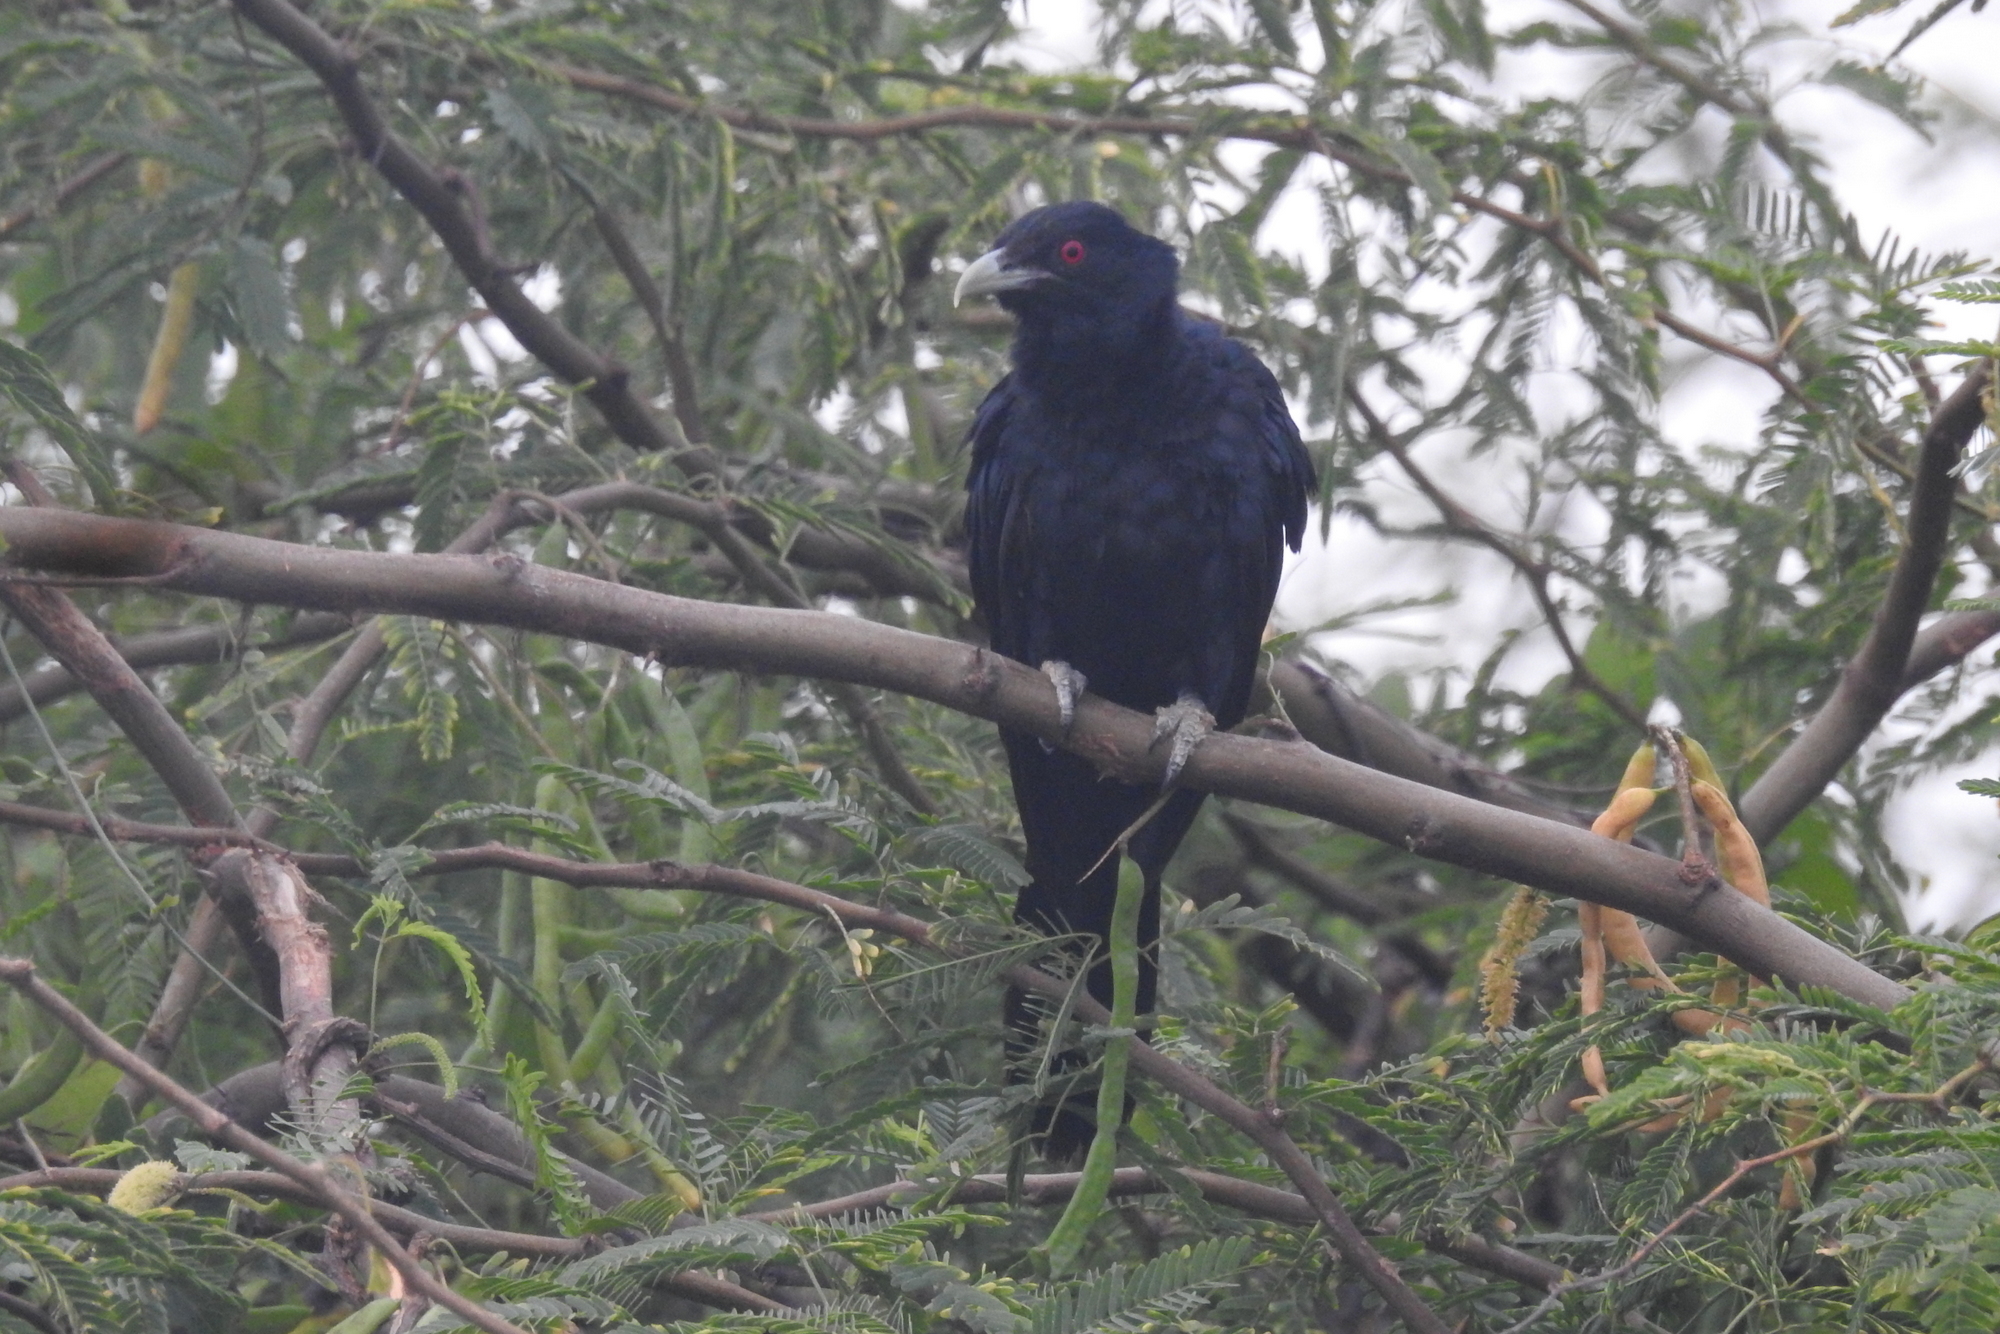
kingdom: Animalia
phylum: Chordata
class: Aves
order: Cuculiformes
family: Cuculidae
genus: Eudynamys
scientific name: Eudynamys scolopaceus
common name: Asian koel
